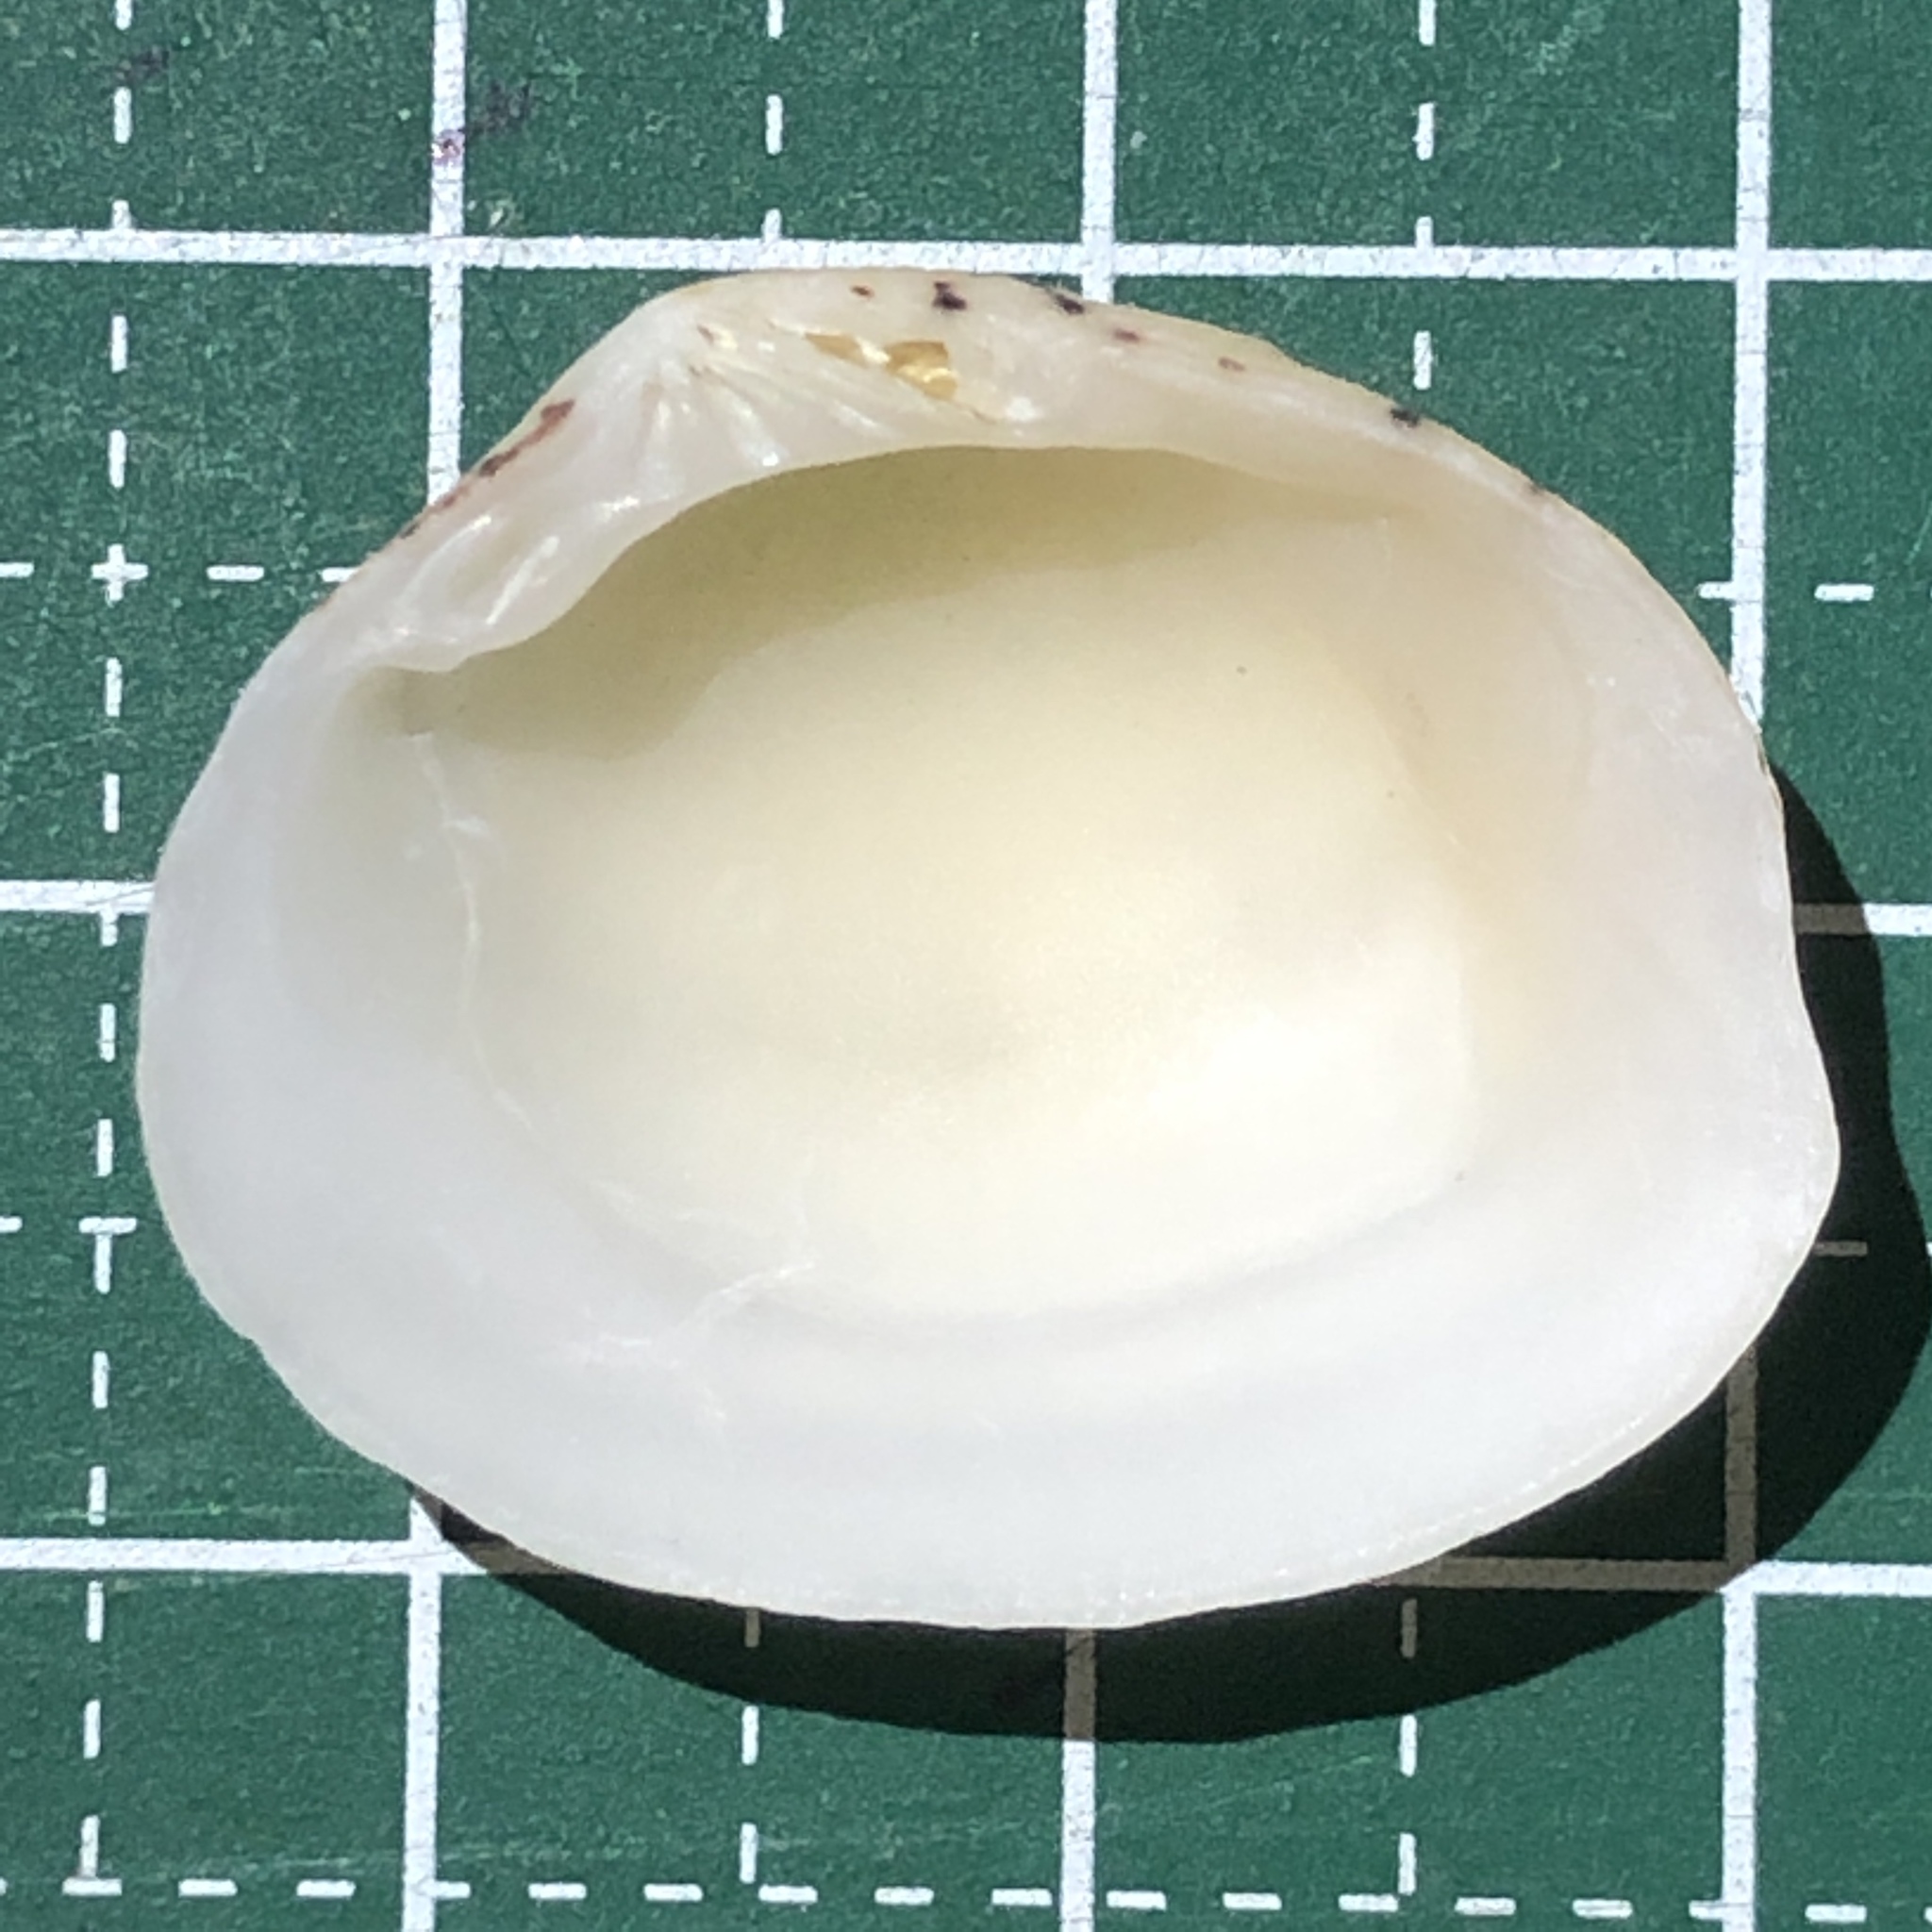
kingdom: Animalia
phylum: Mollusca
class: Bivalvia
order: Venerida
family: Veneridae
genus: Gafrarium
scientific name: Gafrarium dispar
